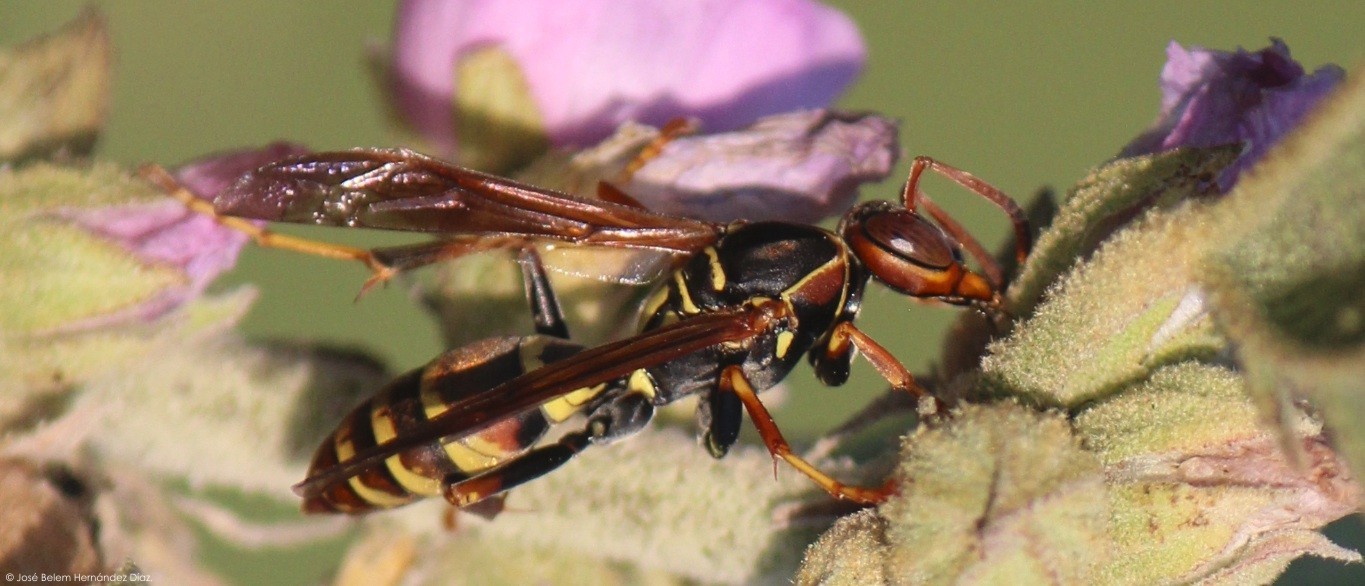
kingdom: Animalia
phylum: Arthropoda
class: Insecta
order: Hymenoptera
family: Eumenidae
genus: Polistes
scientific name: Polistes dorsalis
